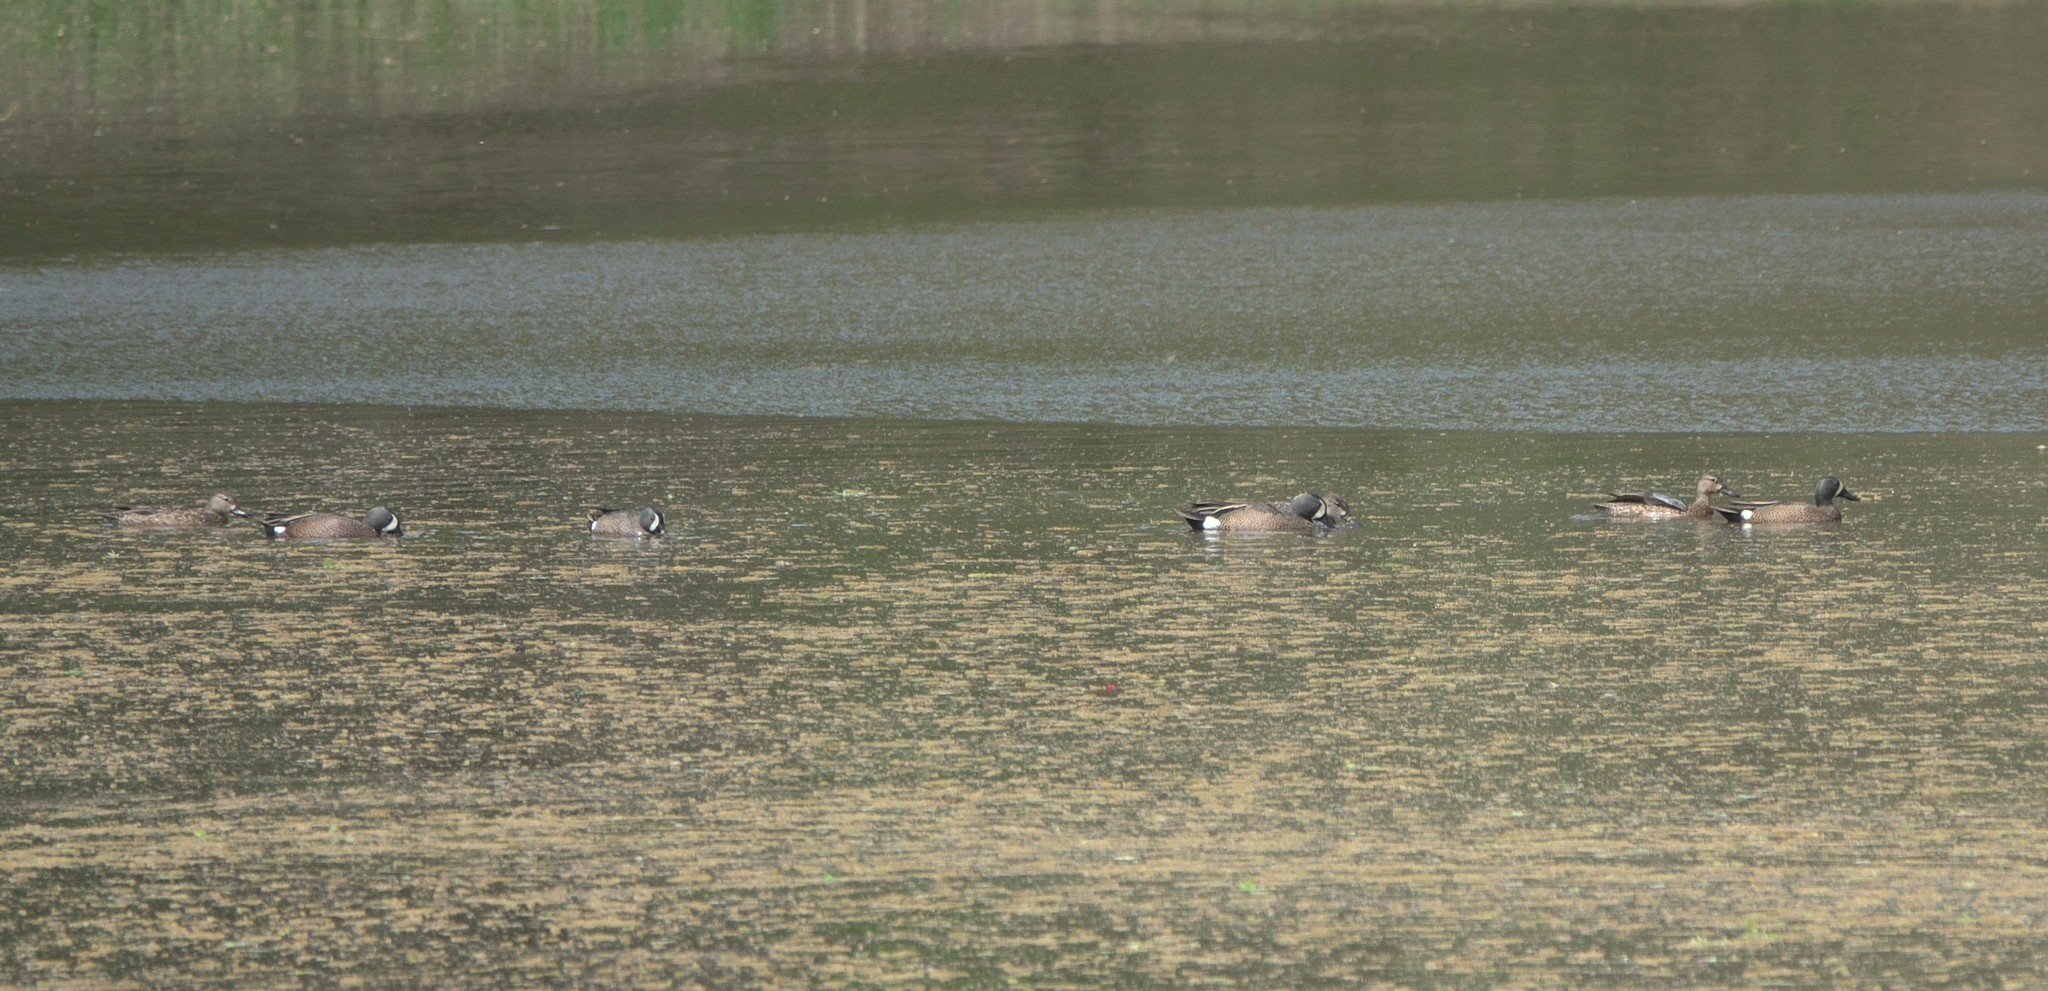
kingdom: Animalia
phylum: Chordata
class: Aves
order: Anseriformes
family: Anatidae
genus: Spatula
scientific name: Spatula discors
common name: Blue-winged teal
